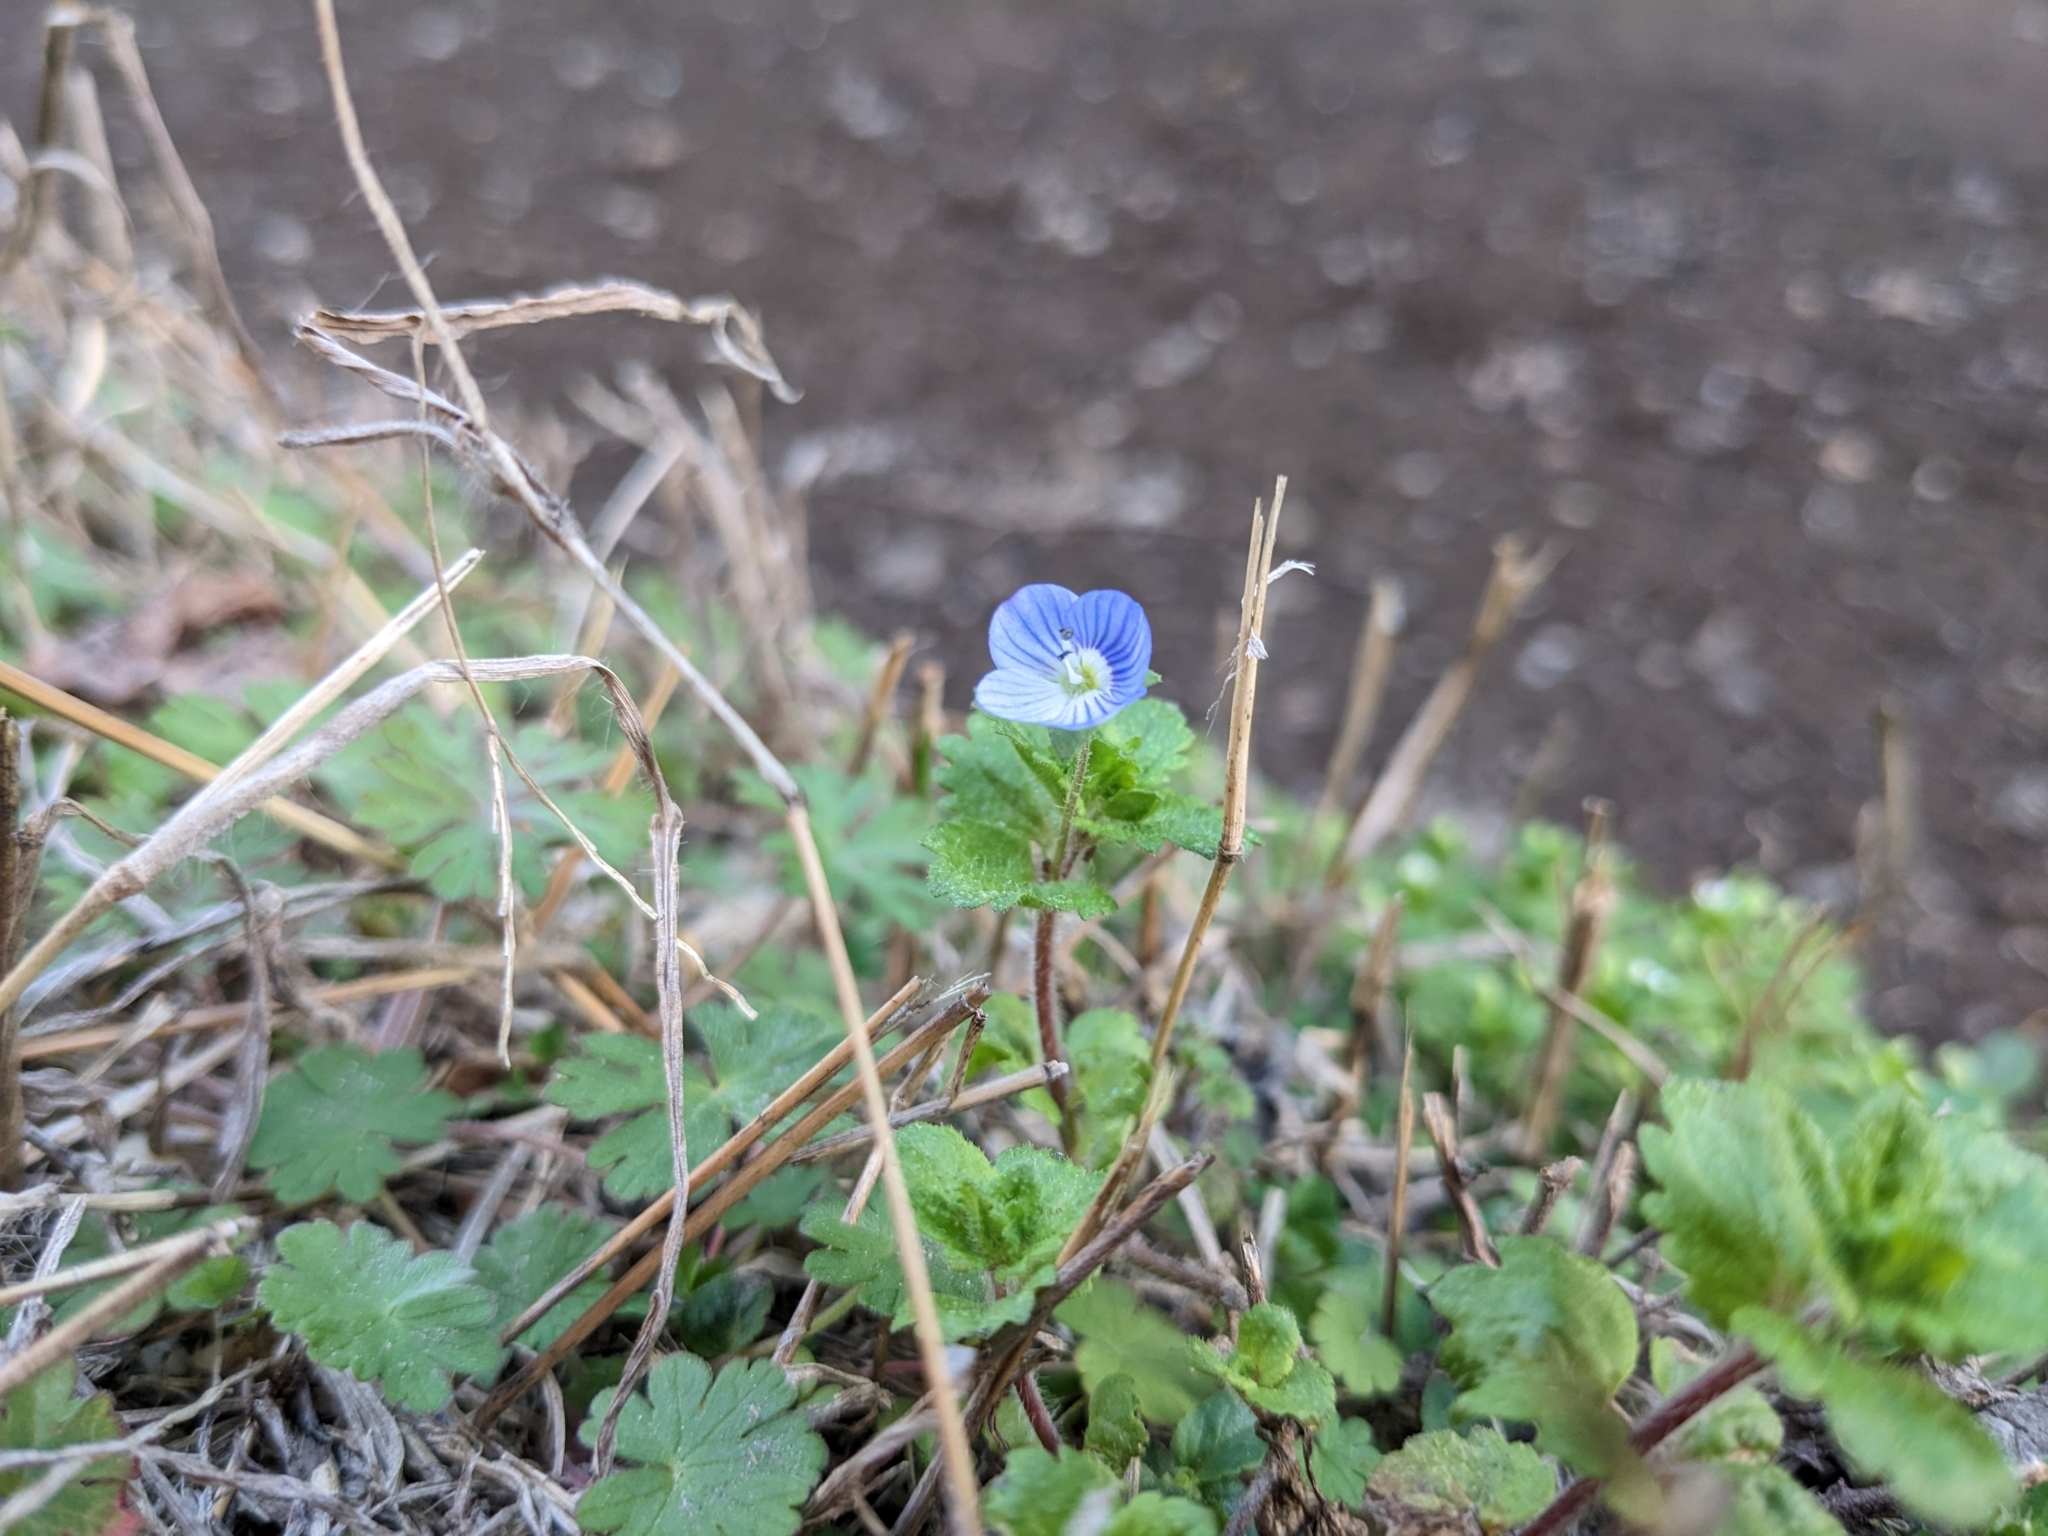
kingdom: Plantae
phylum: Tracheophyta
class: Magnoliopsida
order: Lamiales
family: Plantaginaceae
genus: Veronica
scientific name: Veronica persica
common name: Common field-speedwell
